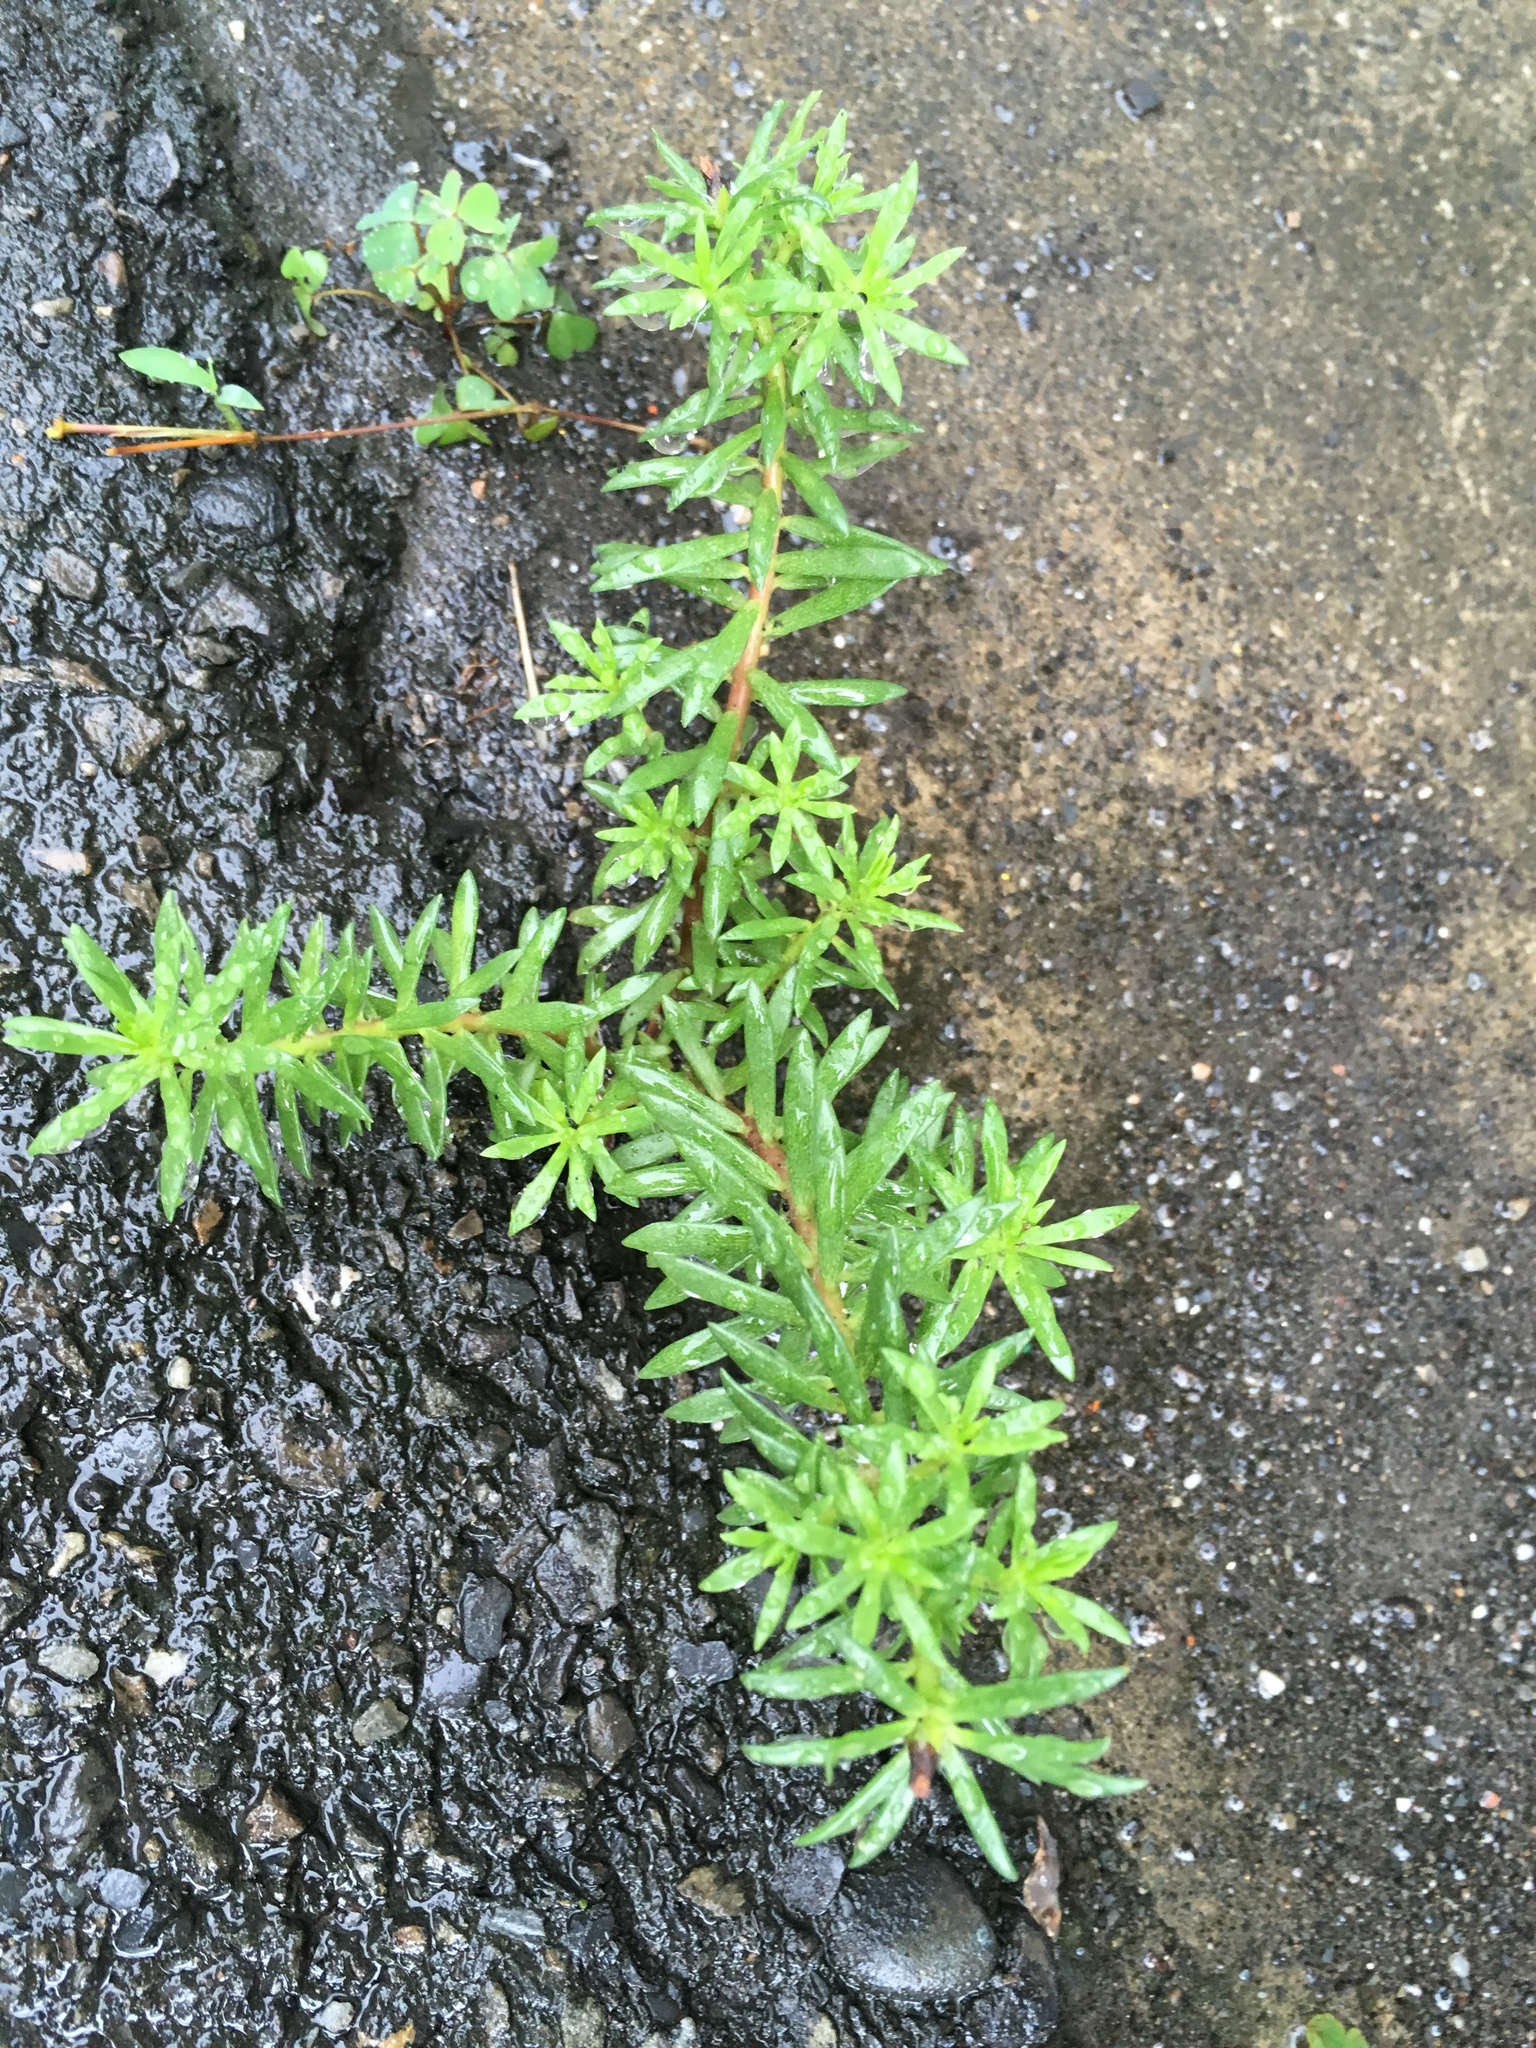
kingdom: Plantae
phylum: Tracheophyta
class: Magnoliopsida
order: Caryophyllales
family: Portulacaceae
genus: Portulaca
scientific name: Portulaca pilosa
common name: Kiss me quick
